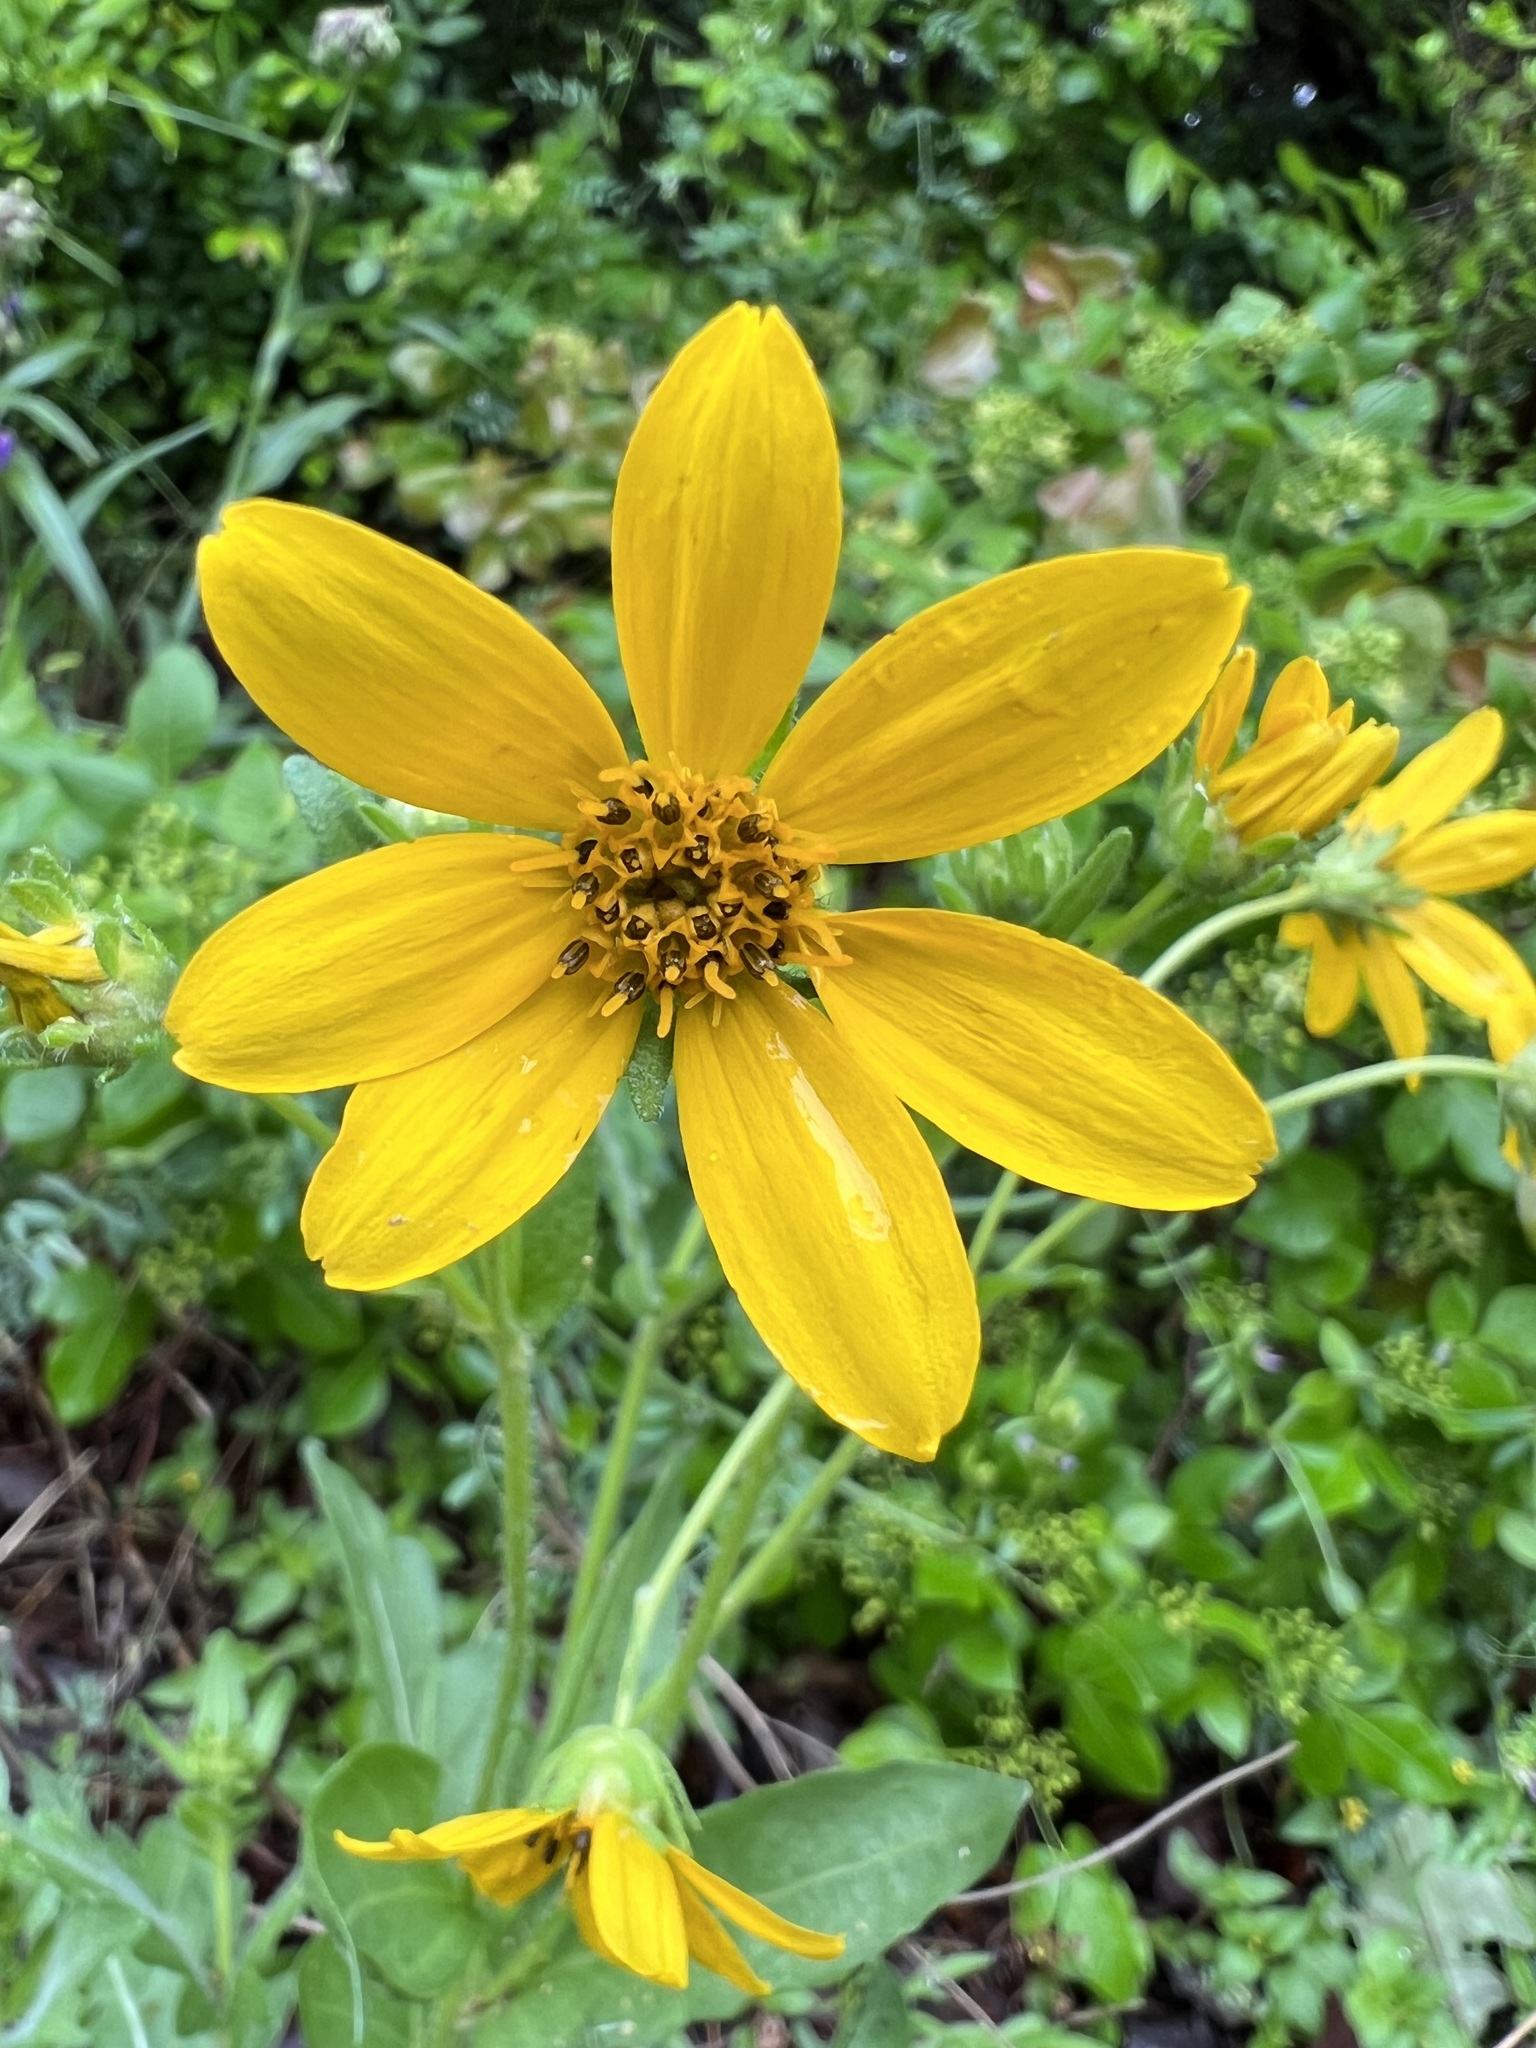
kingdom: Plantae
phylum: Tracheophyta
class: Magnoliopsida
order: Asterales
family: Asteraceae
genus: Engelmannia
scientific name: Engelmannia peristenia
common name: Engelmann's daisy
